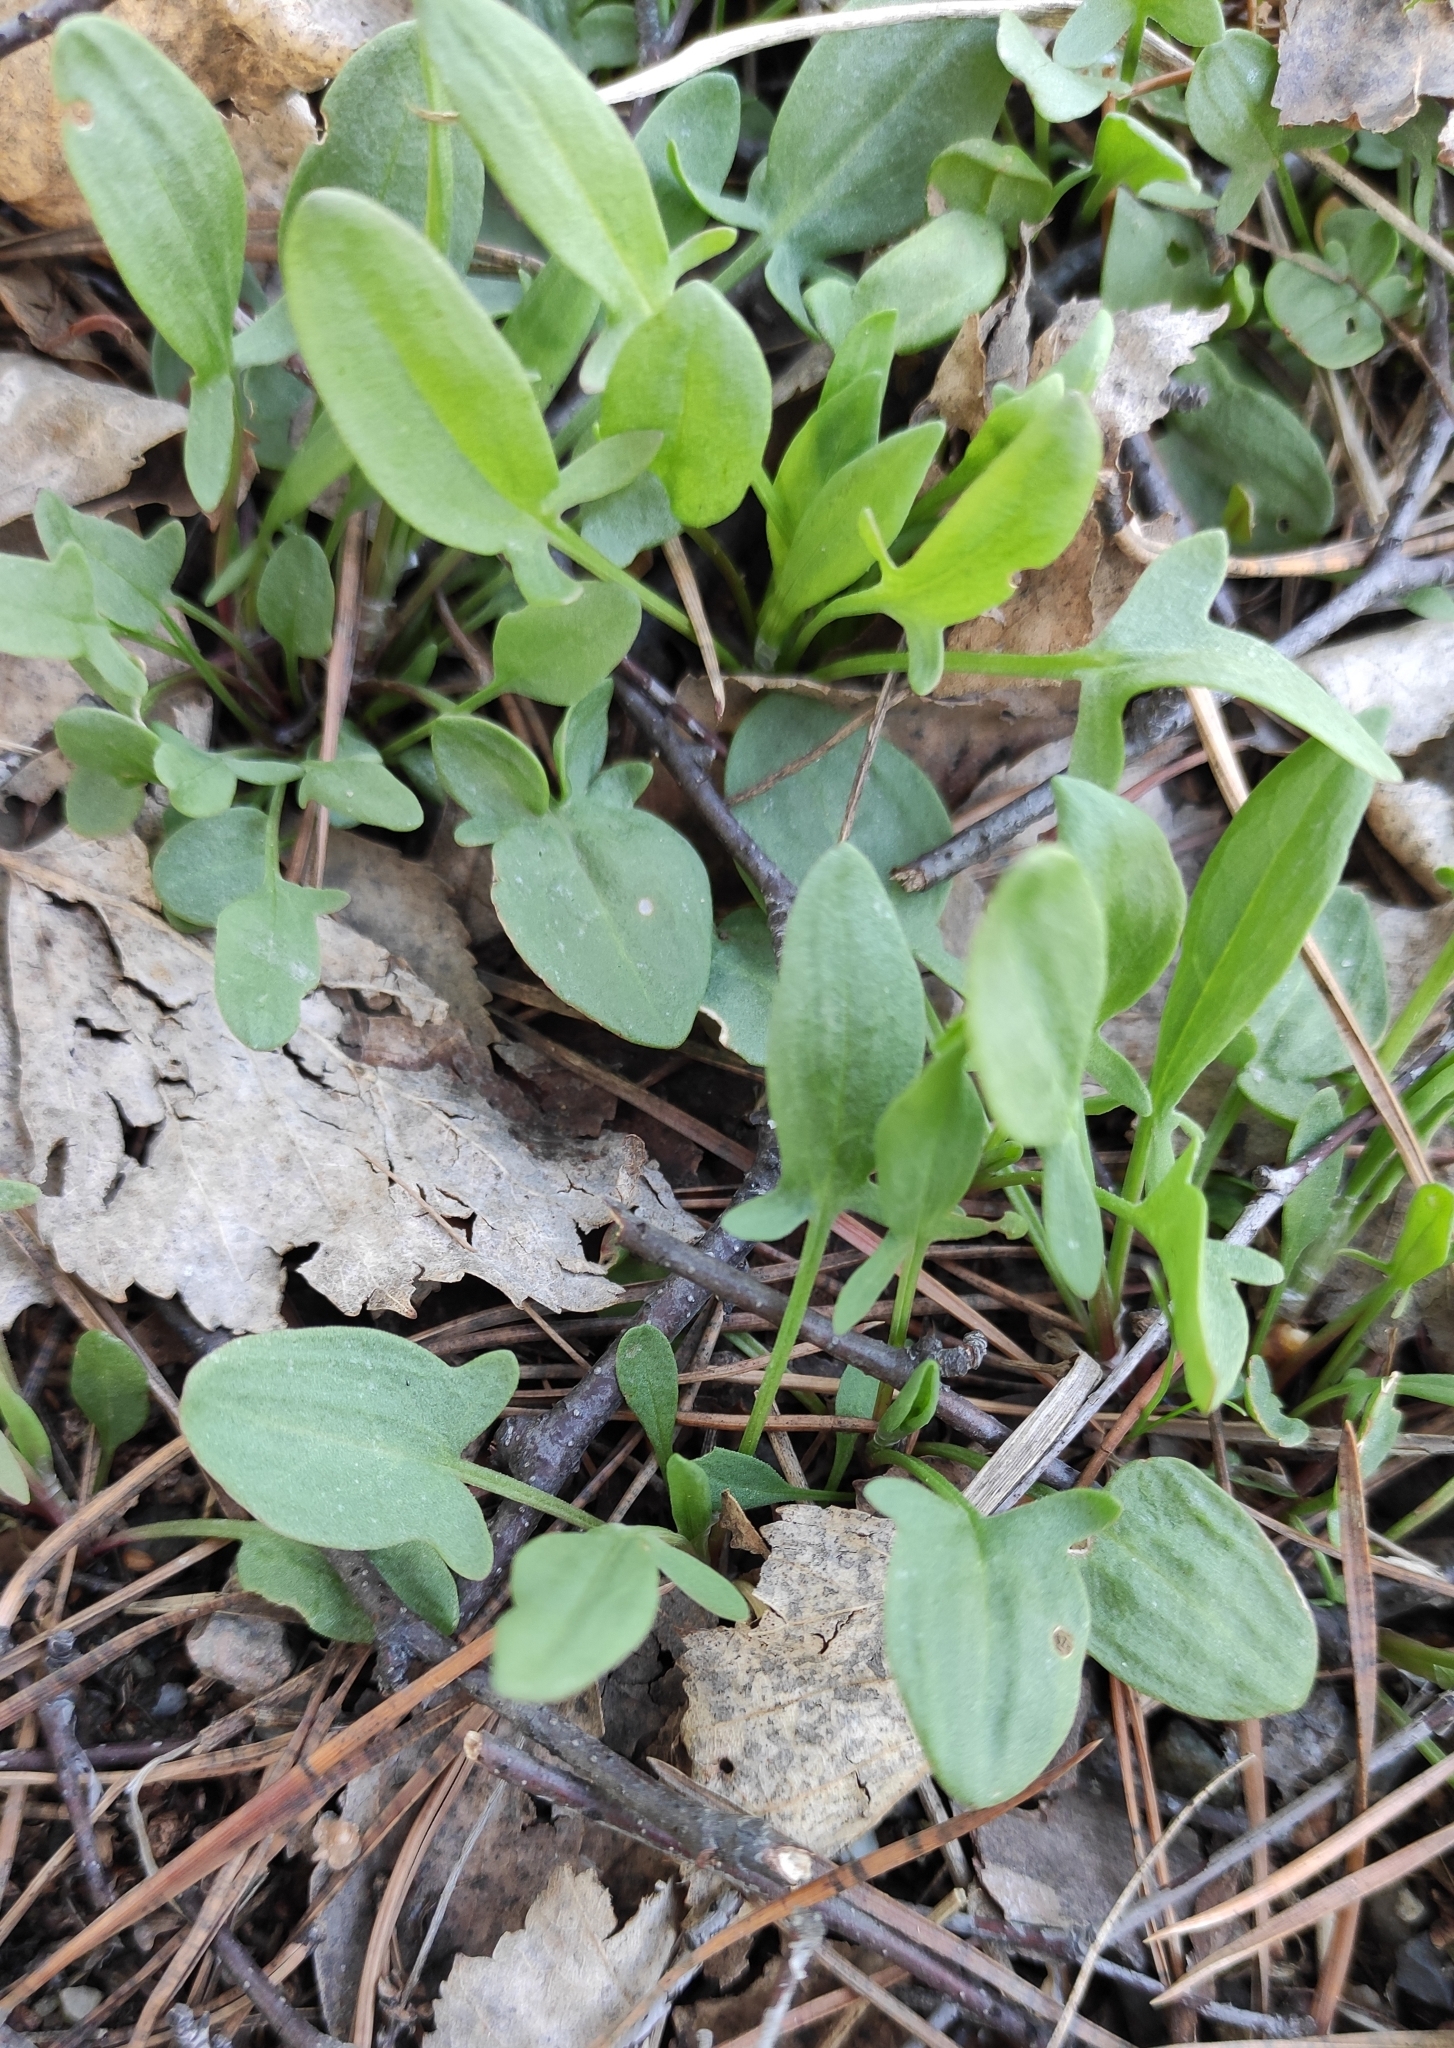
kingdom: Plantae
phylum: Tracheophyta
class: Magnoliopsida
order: Caryophyllales
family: Polygonaceae
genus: Rumex
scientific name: Rumex acetosella
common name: Common sheep sorrel
